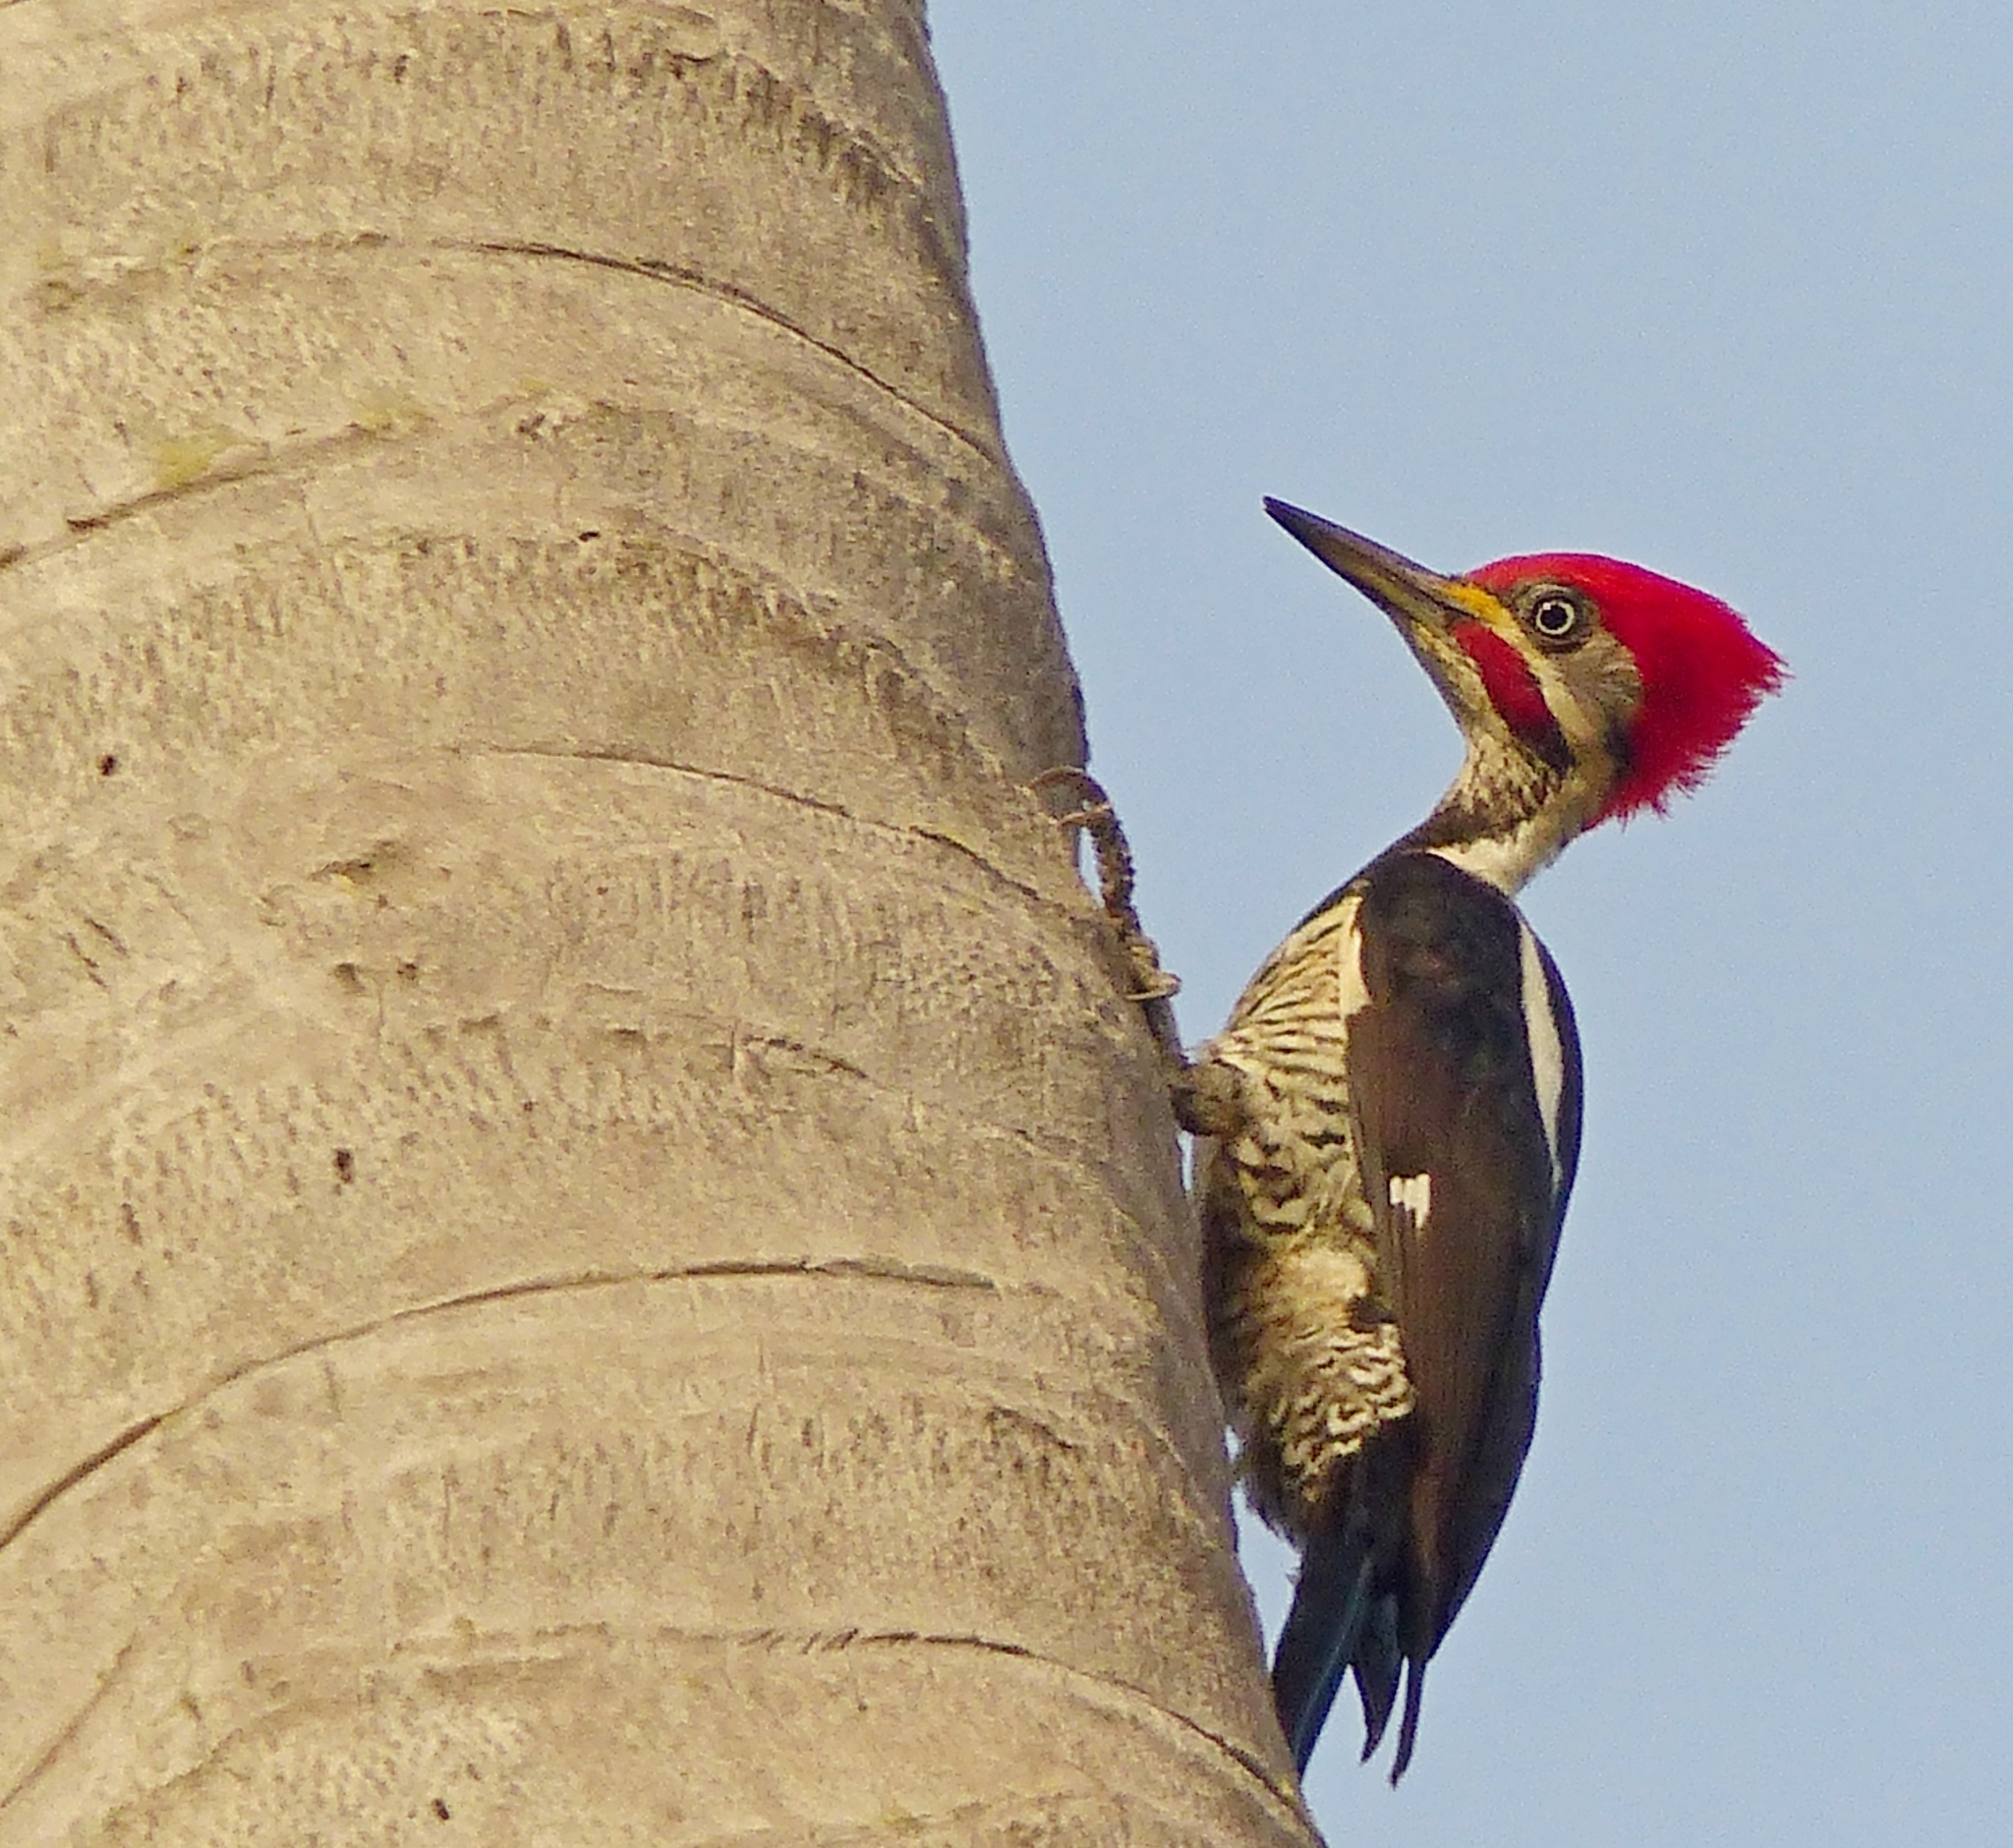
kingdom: Animalia
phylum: Chordata
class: Aves
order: Piciformes
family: Picidae
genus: Dryocopus
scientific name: Dryocopus lineatus
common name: Lineated woodpecker
